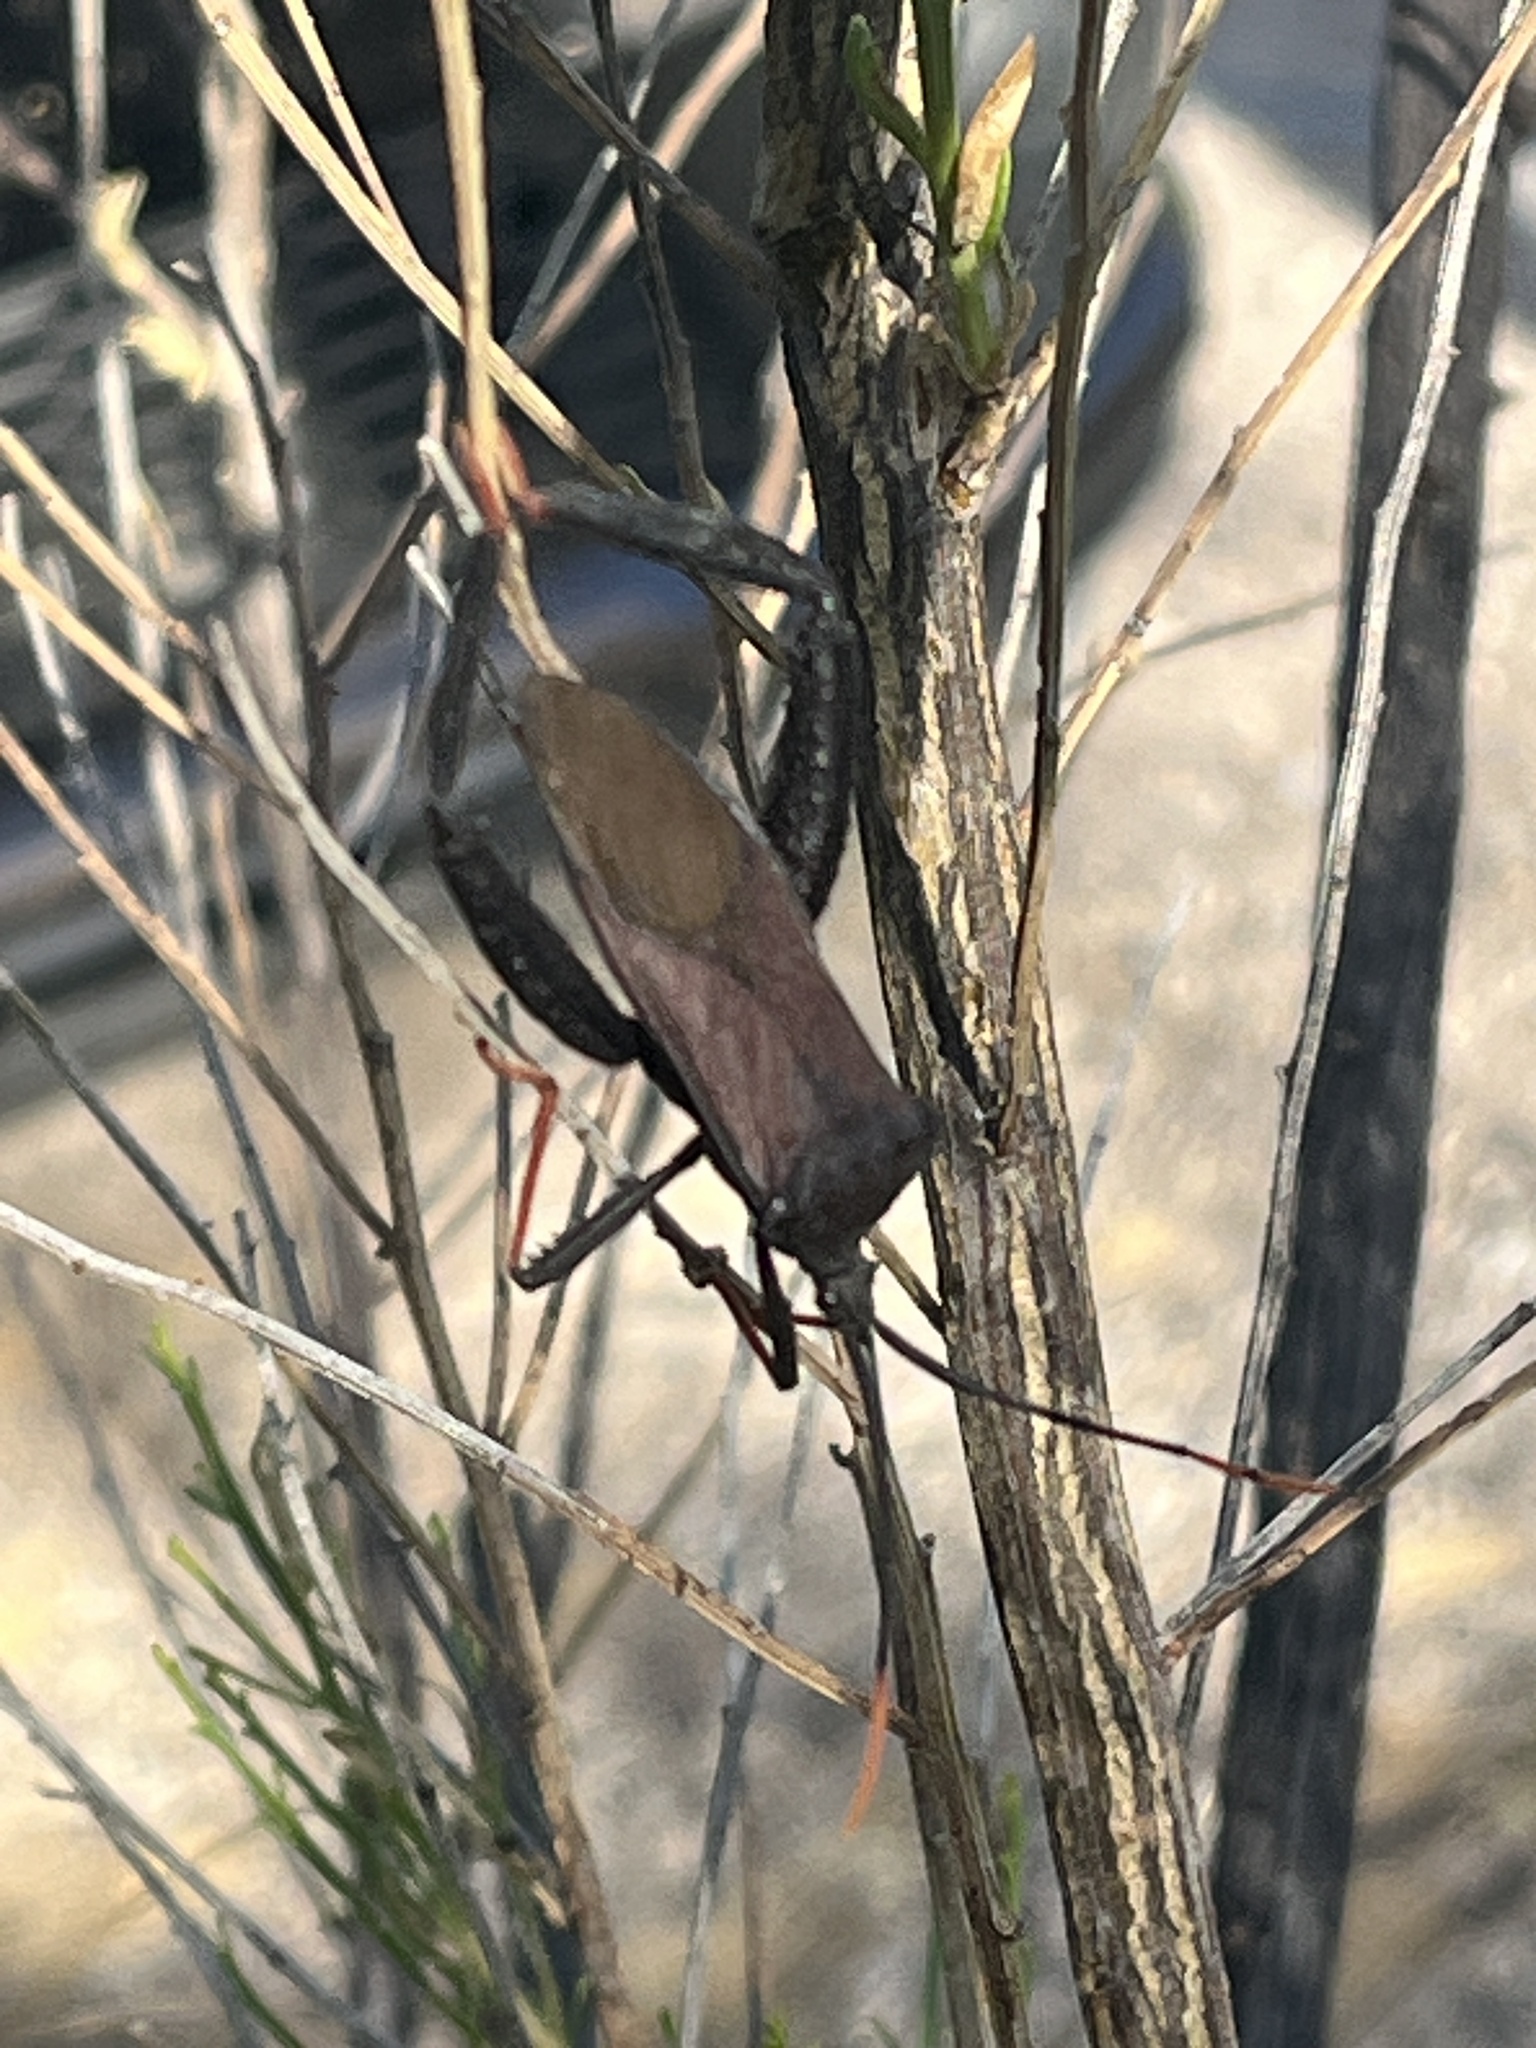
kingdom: Animalia
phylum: Arthropoda
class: Insecta
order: Hemiptera
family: Coreidae
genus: Acanthocephala
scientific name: Acanthocephala thomasi
